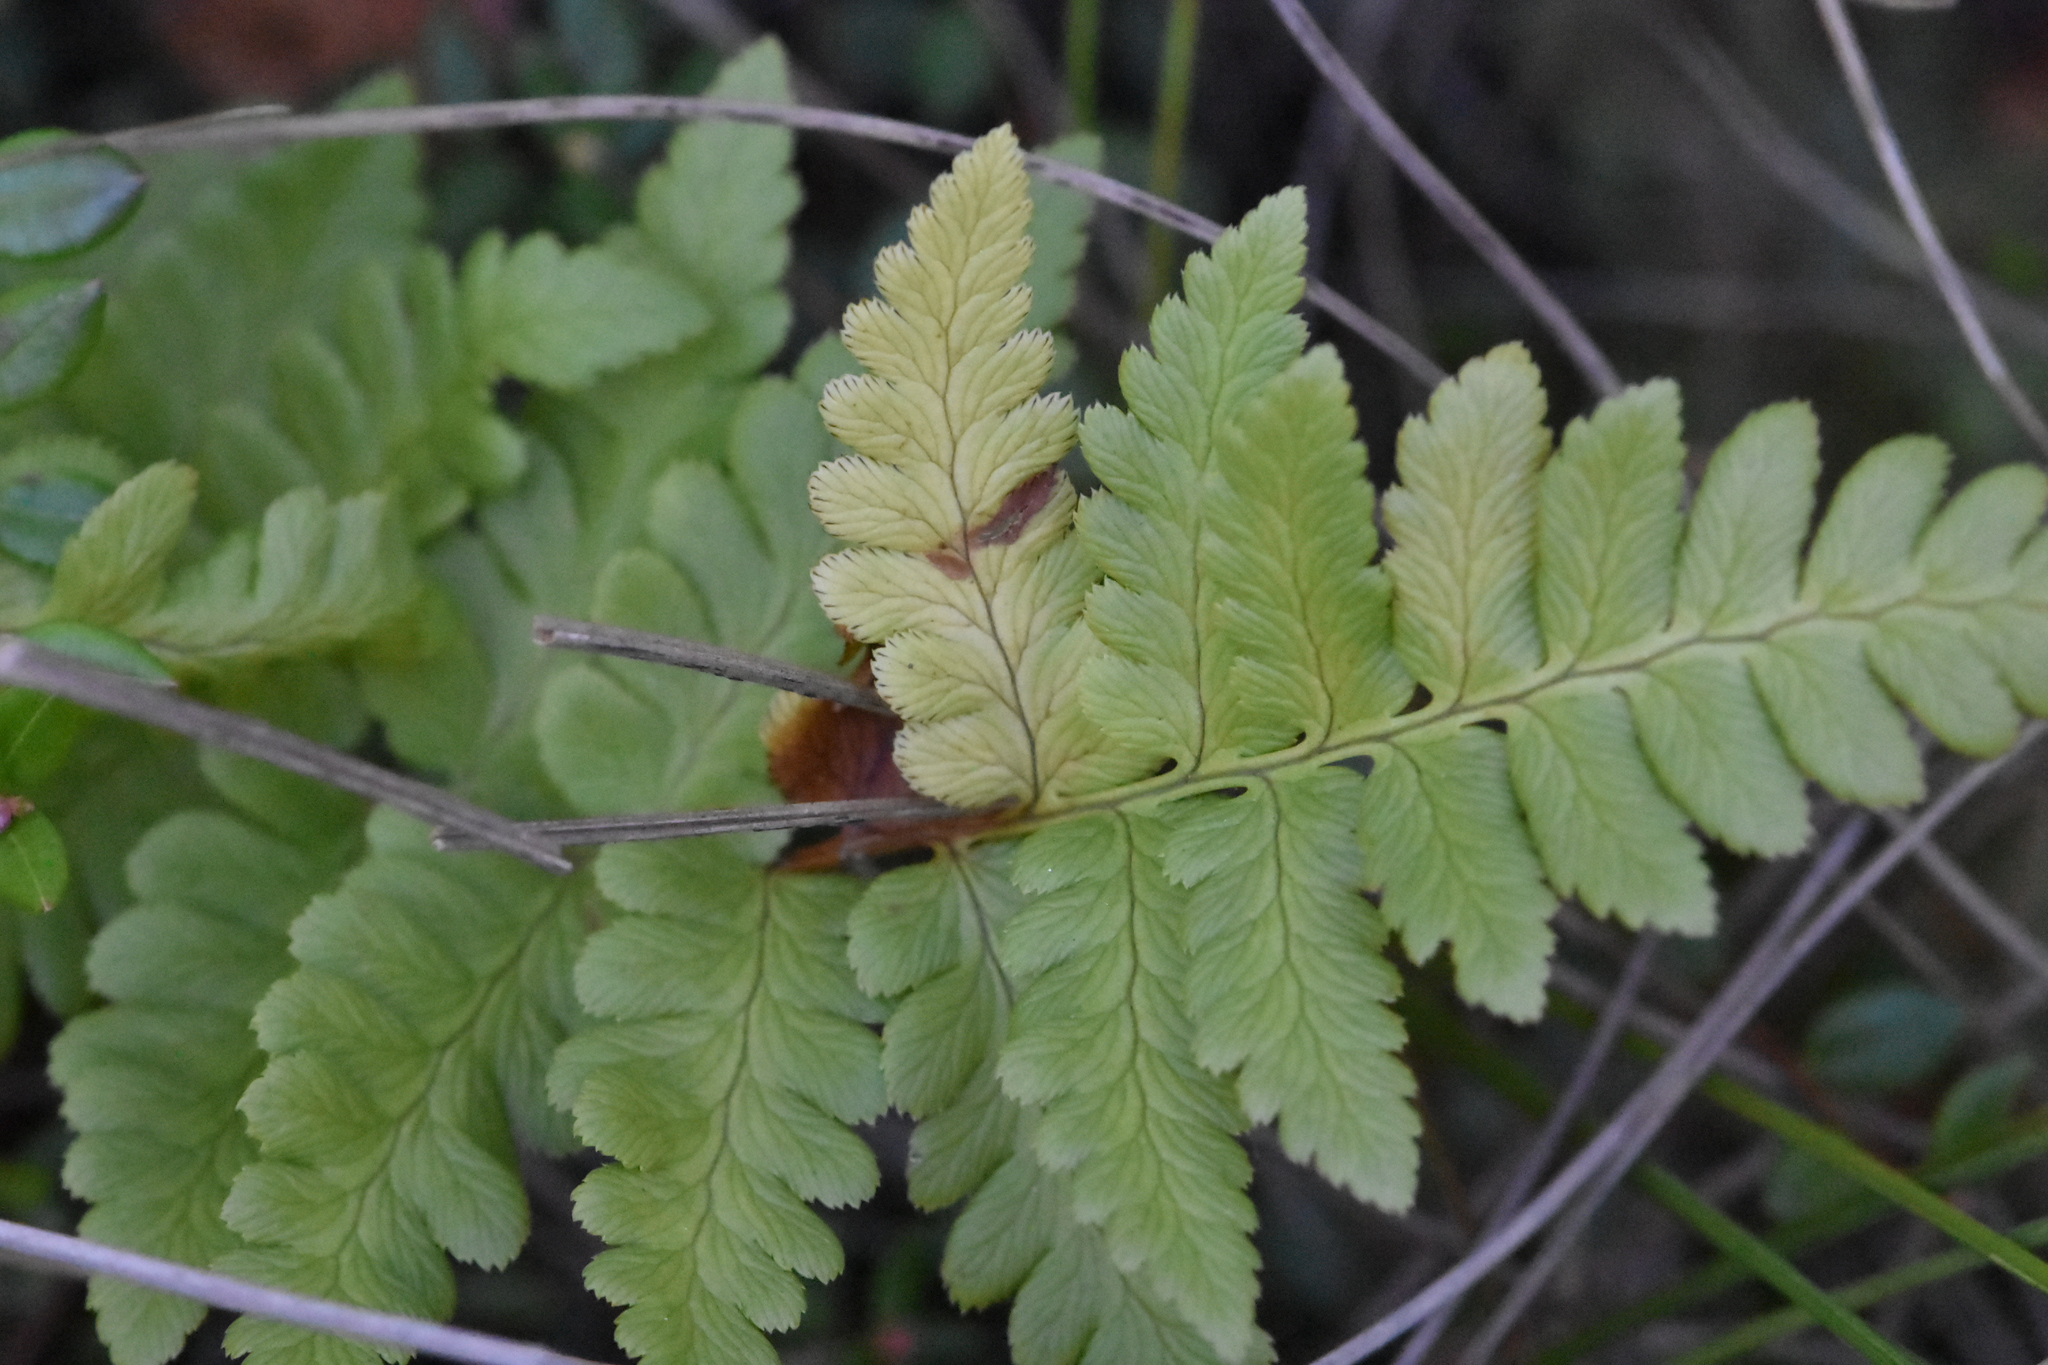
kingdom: Plantae
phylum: Tracheophyta
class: Polypodiopsida
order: Polypodiales
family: Dryopteridaceae
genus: Dryopteris
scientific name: Dryopteris cristata
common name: Crested wood fern
